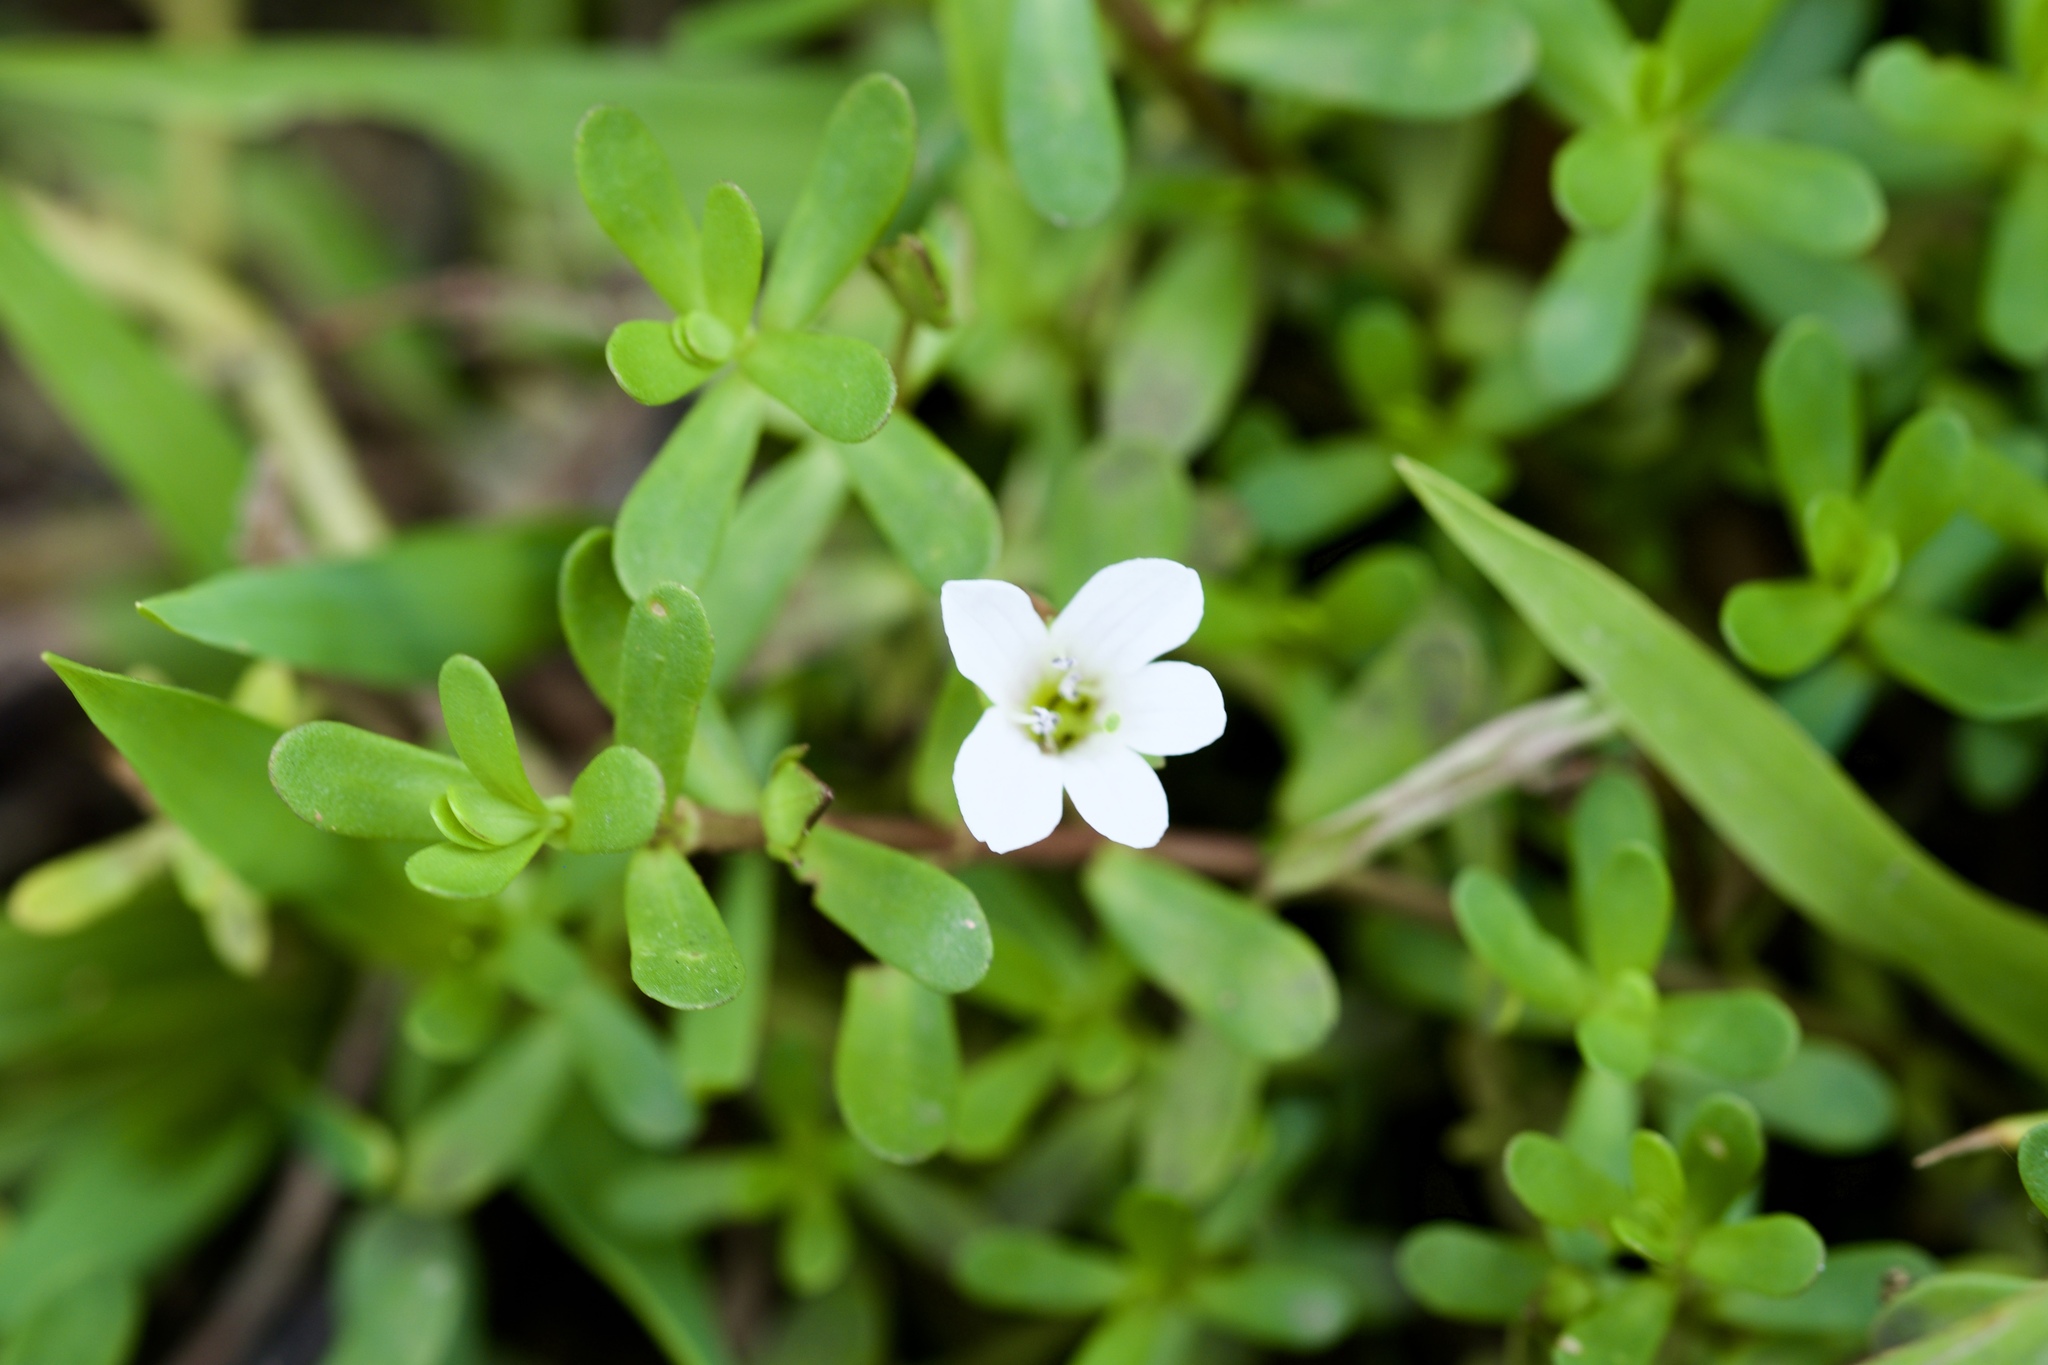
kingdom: Plantae
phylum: Tracheophyta
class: Magnoliopsida
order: Lamiales
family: Plantaginaceae
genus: Bacopa
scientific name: Bacopa monnieri
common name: Indian-pennywort
